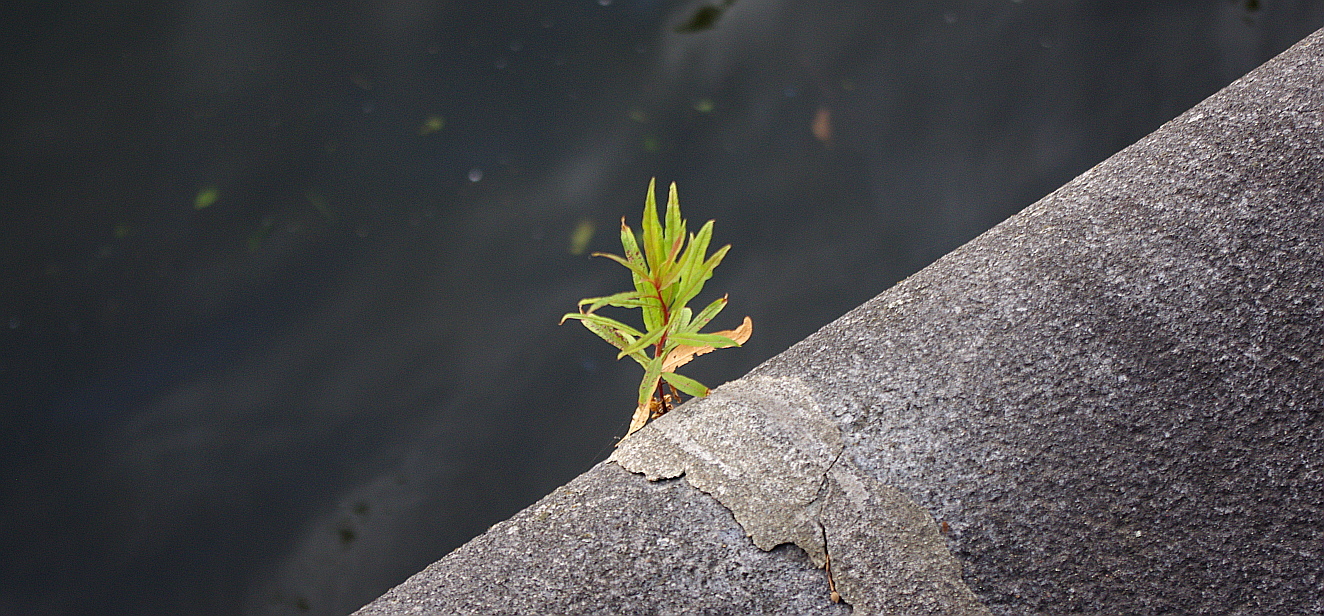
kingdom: Plantae
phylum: Tracheophyta
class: Magnoliopsida
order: Myrtales
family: Onagraceae
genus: Chamaenerion
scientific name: Chamaenerion angustifolium
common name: Fireweed
